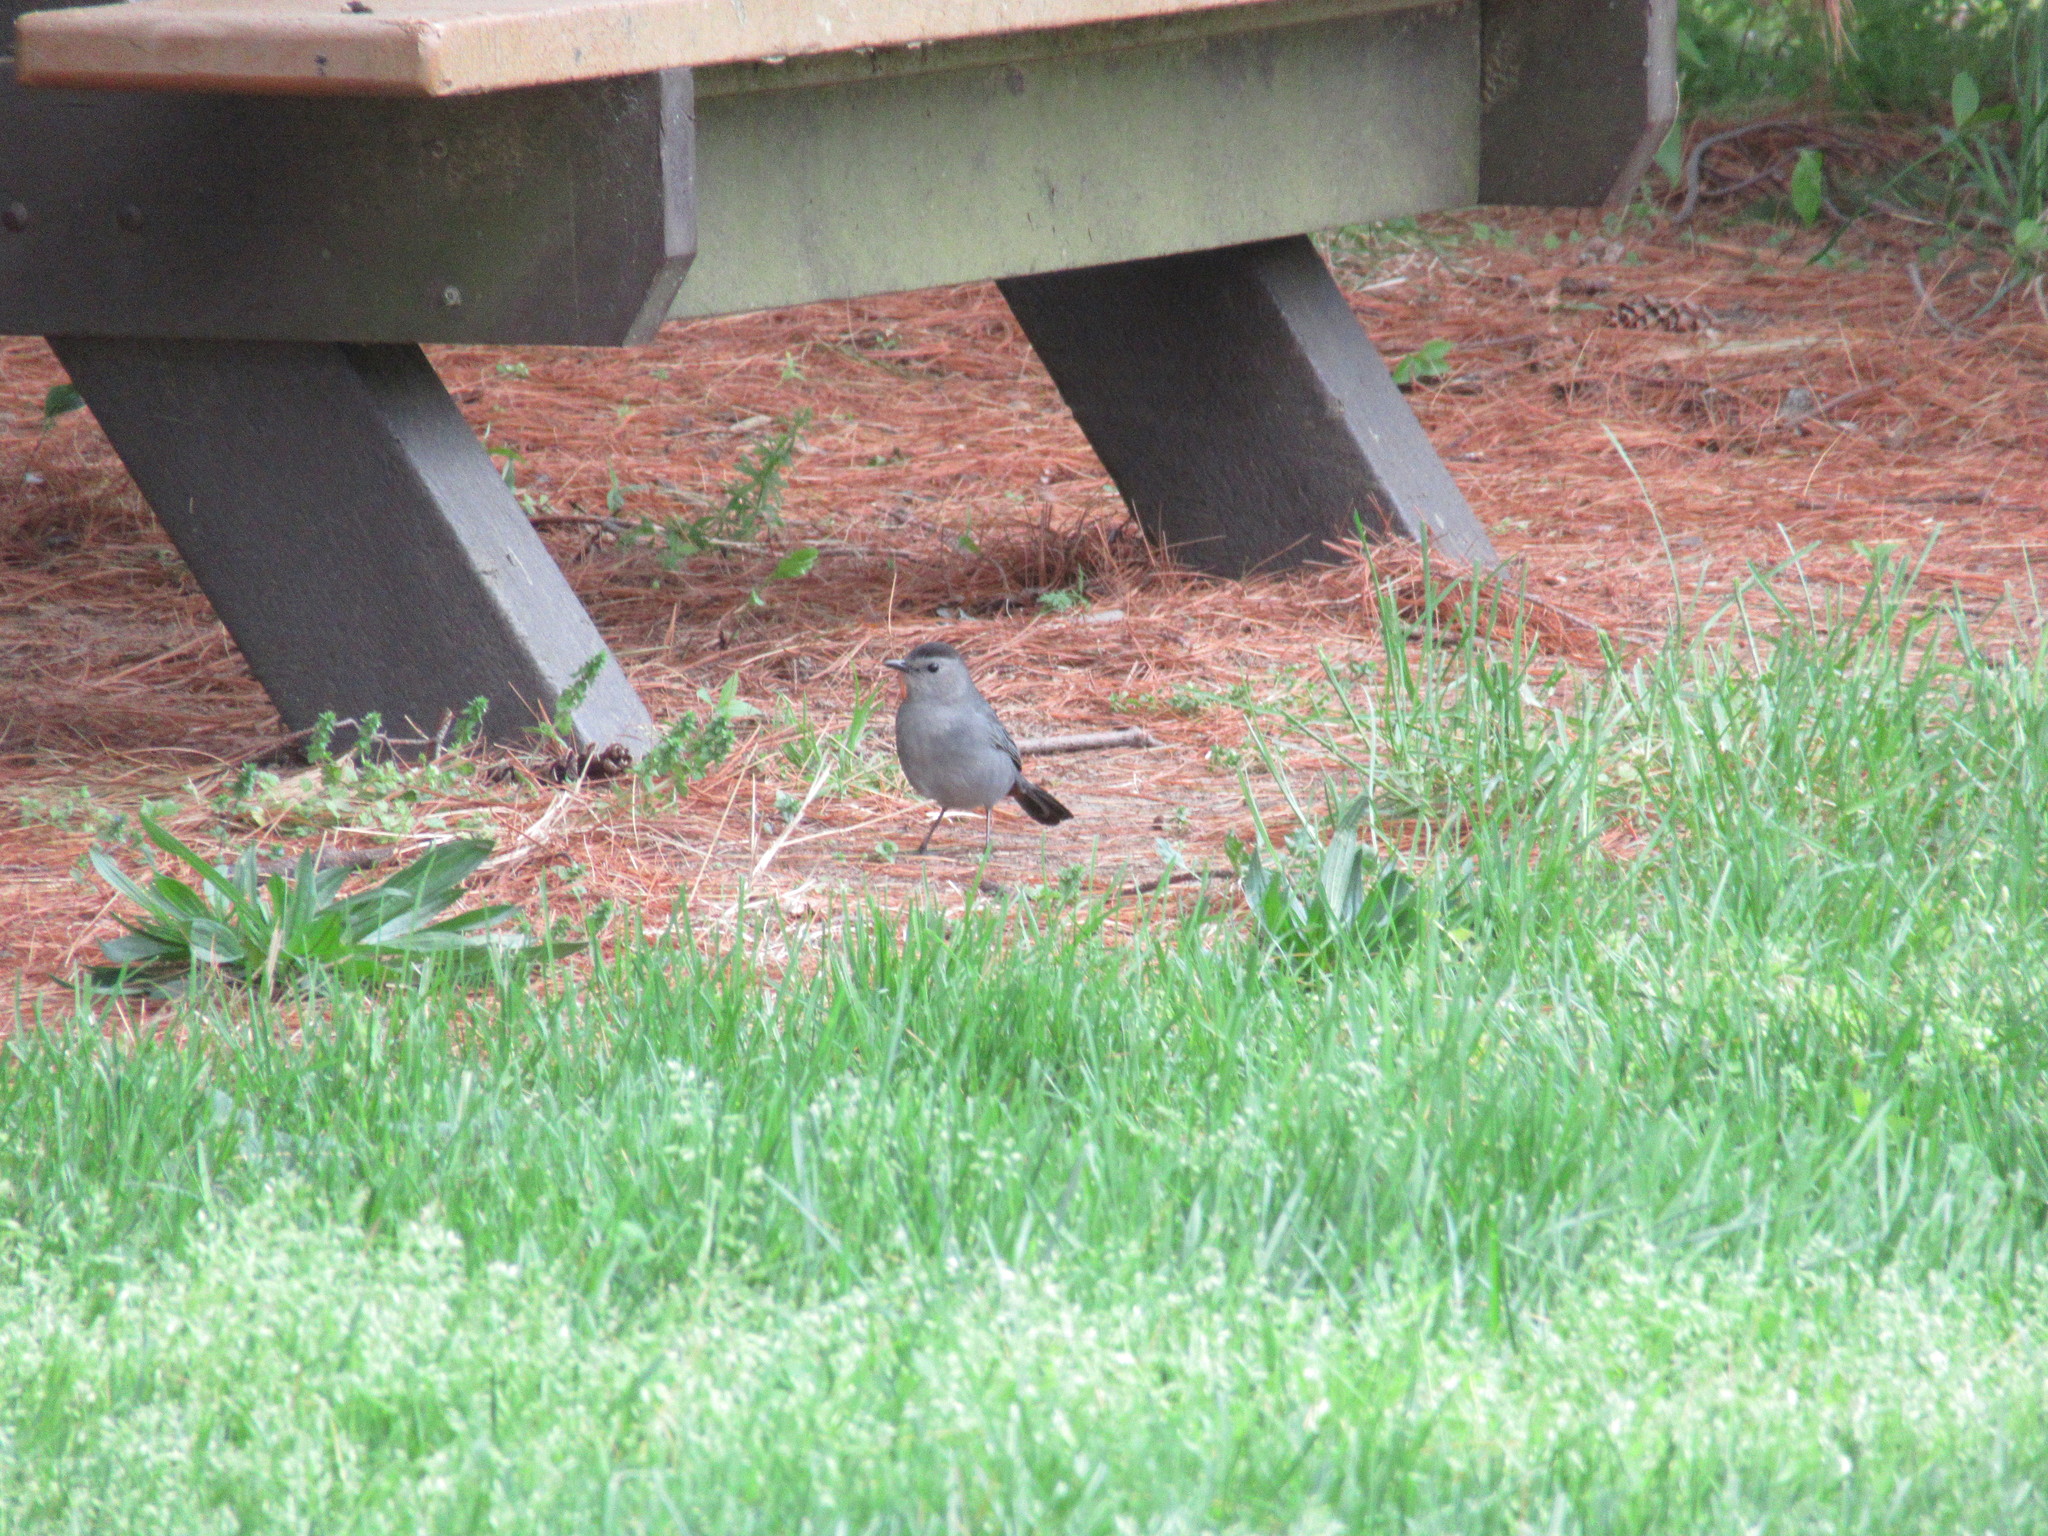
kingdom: Animalia
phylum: Chordata
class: Aves
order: Passeriformes
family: Mimidae
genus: Dumetella
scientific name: Dumetella carolinensis
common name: Gray catbird
